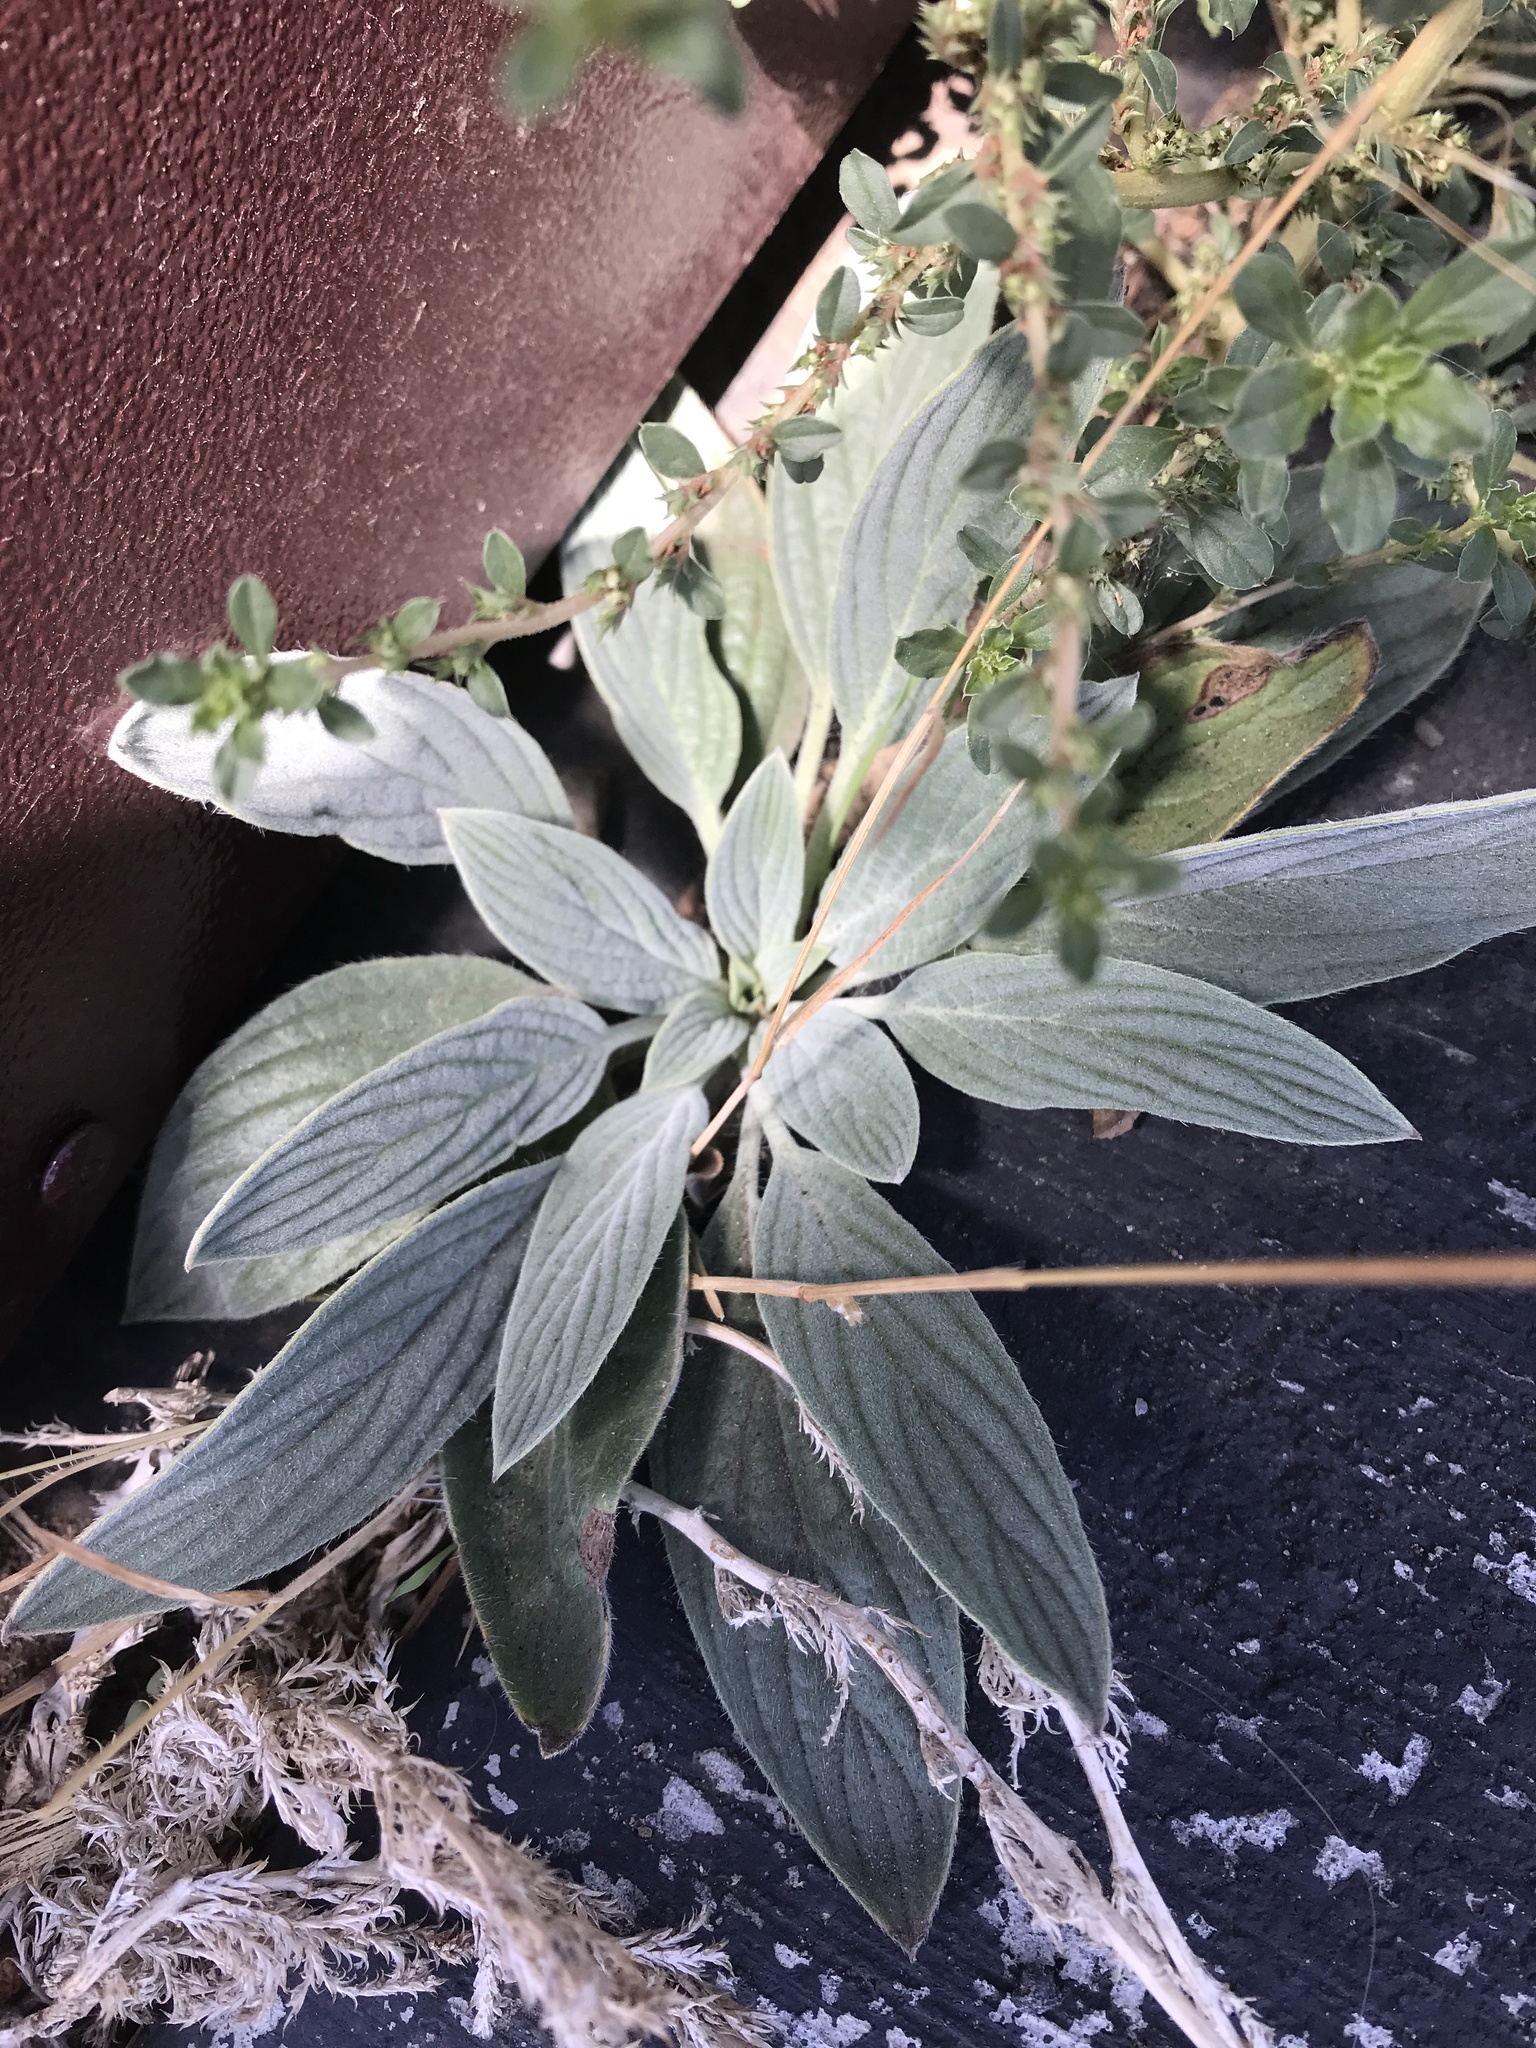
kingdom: Plantae
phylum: Tracheophyta
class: Magnoliopsida
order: Boraginales
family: Hydrophyllaceae
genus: Phacelia
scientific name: Phacelia hastata
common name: Silver-leaved phacelia
